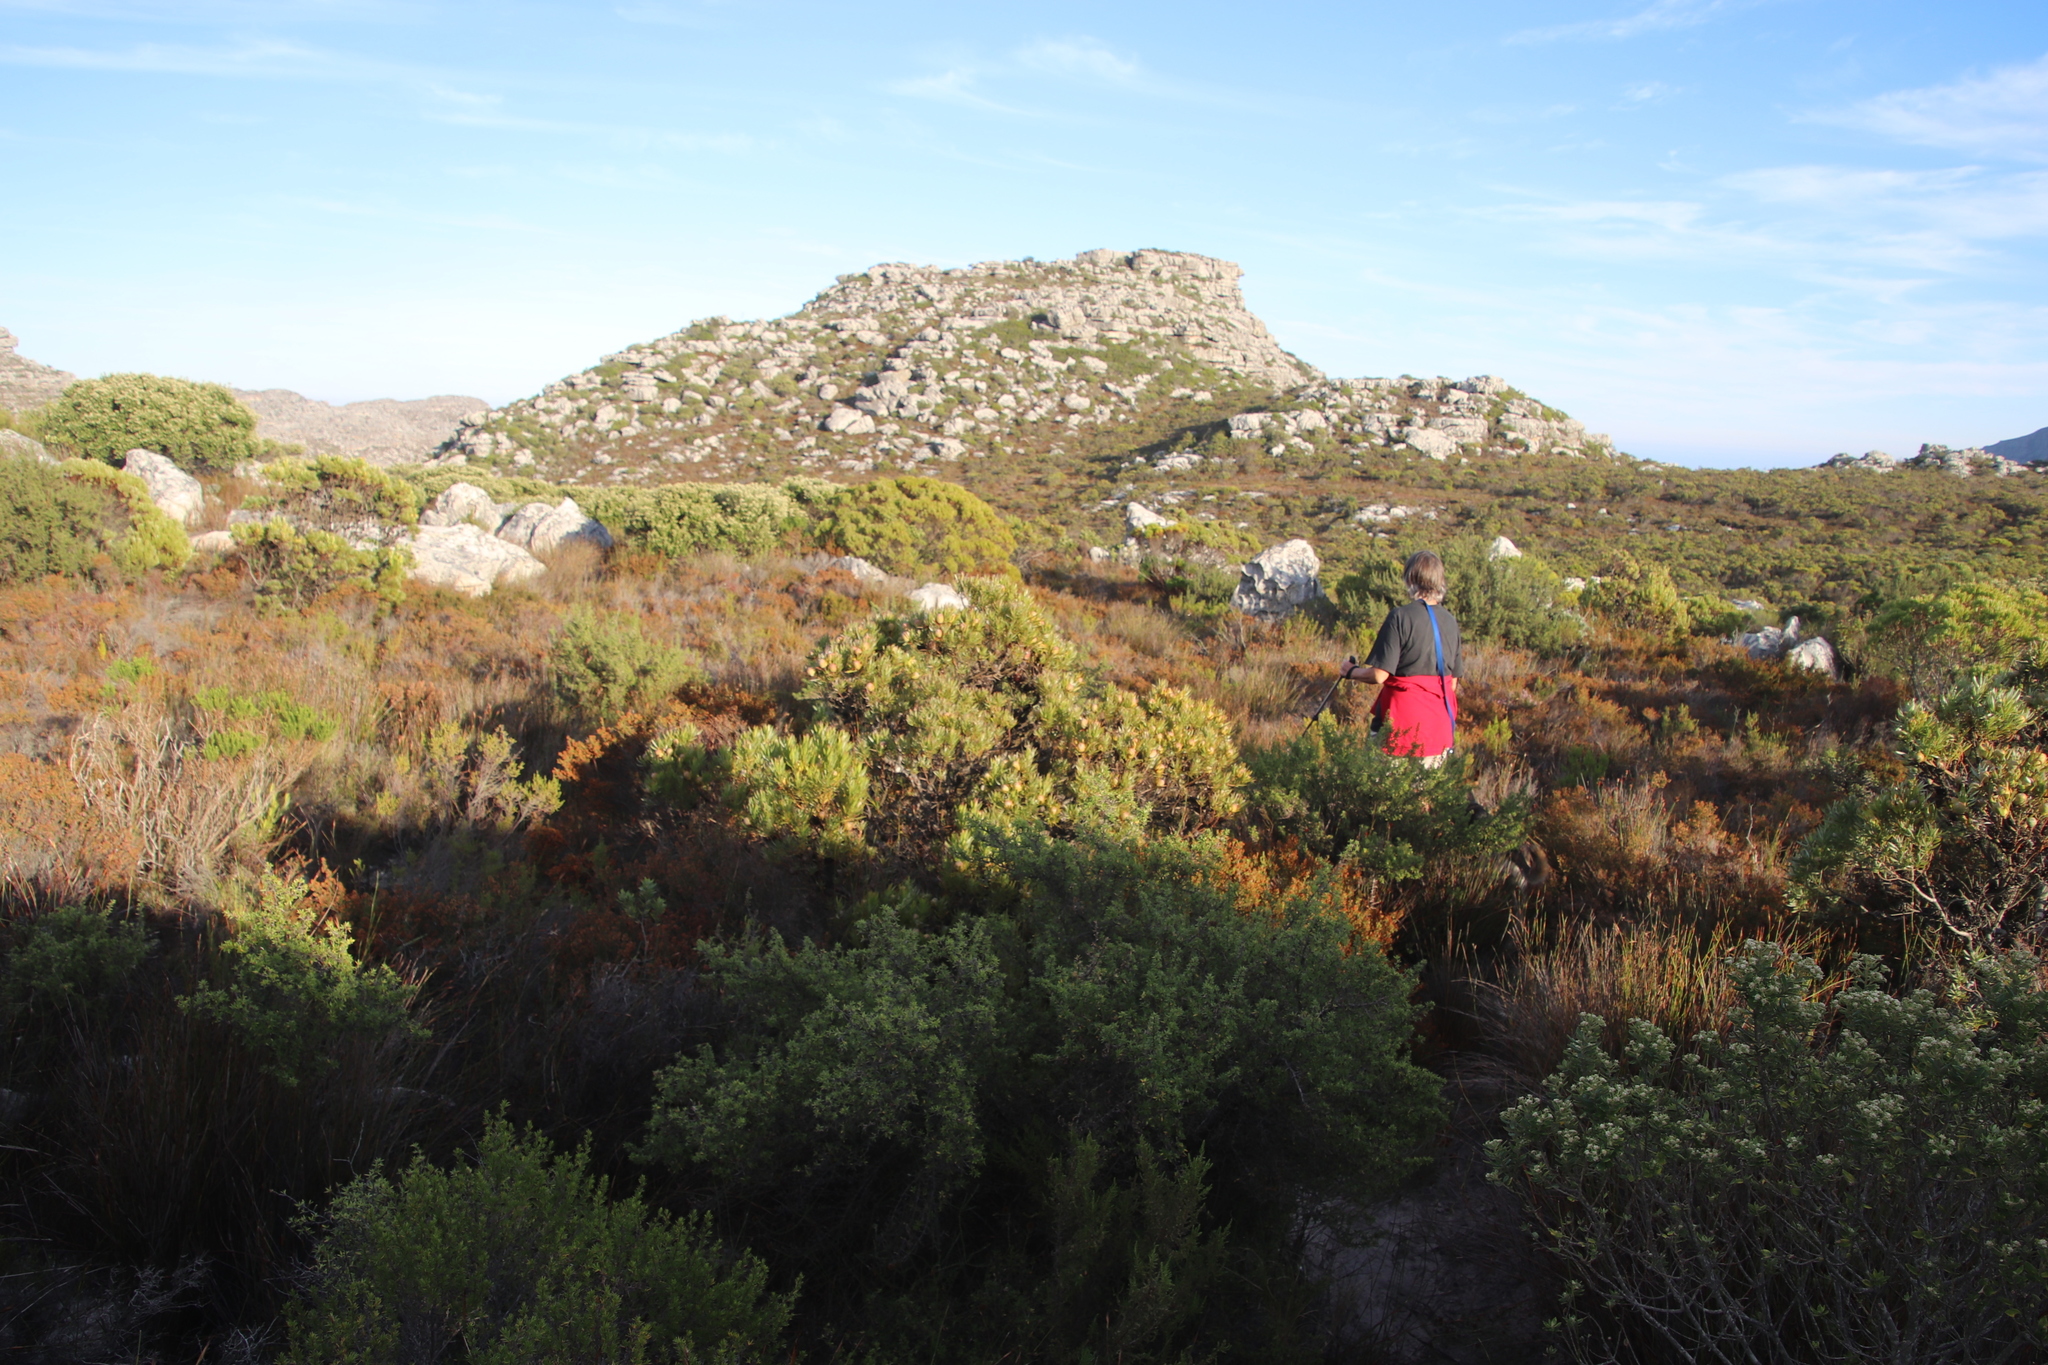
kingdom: Plantae
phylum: Tracheophyta
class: Magnoliopsida
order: Proteales
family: Proteaceae
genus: Leucadendron
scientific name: Leucadendron xanthoconus
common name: Sickle-leaf conebush
